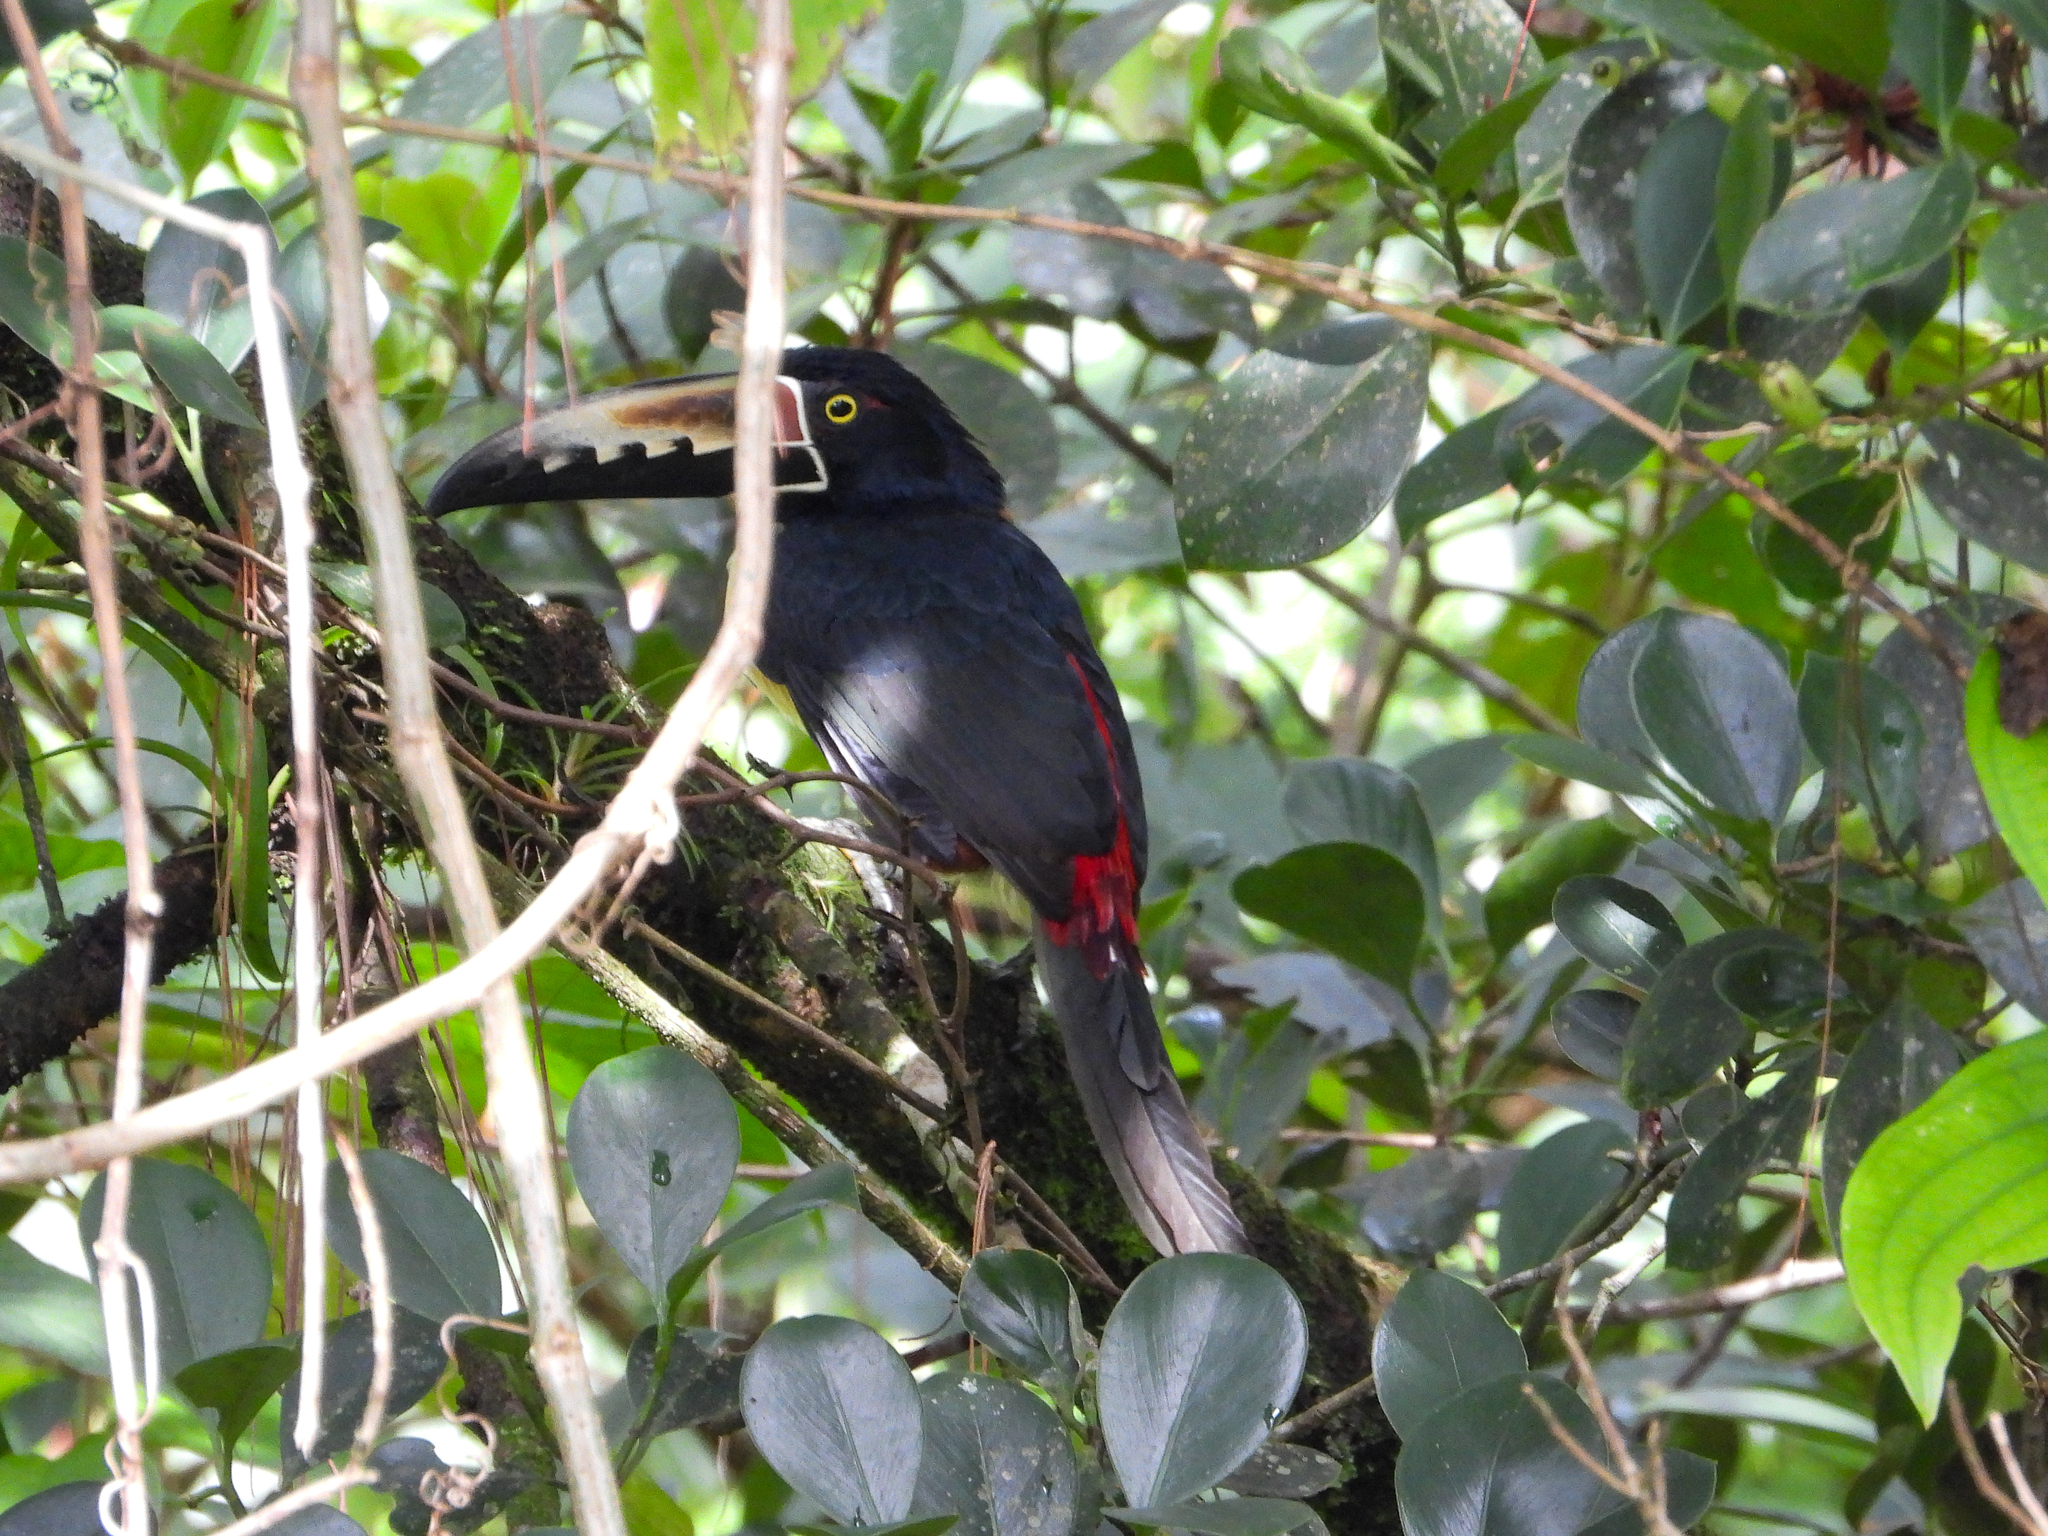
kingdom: Animalia
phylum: Chordata
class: Aves
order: Piciformes
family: Ramphastidae
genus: Pteroglossus
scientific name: Pteroglossus torquatus
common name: Collared aracari
